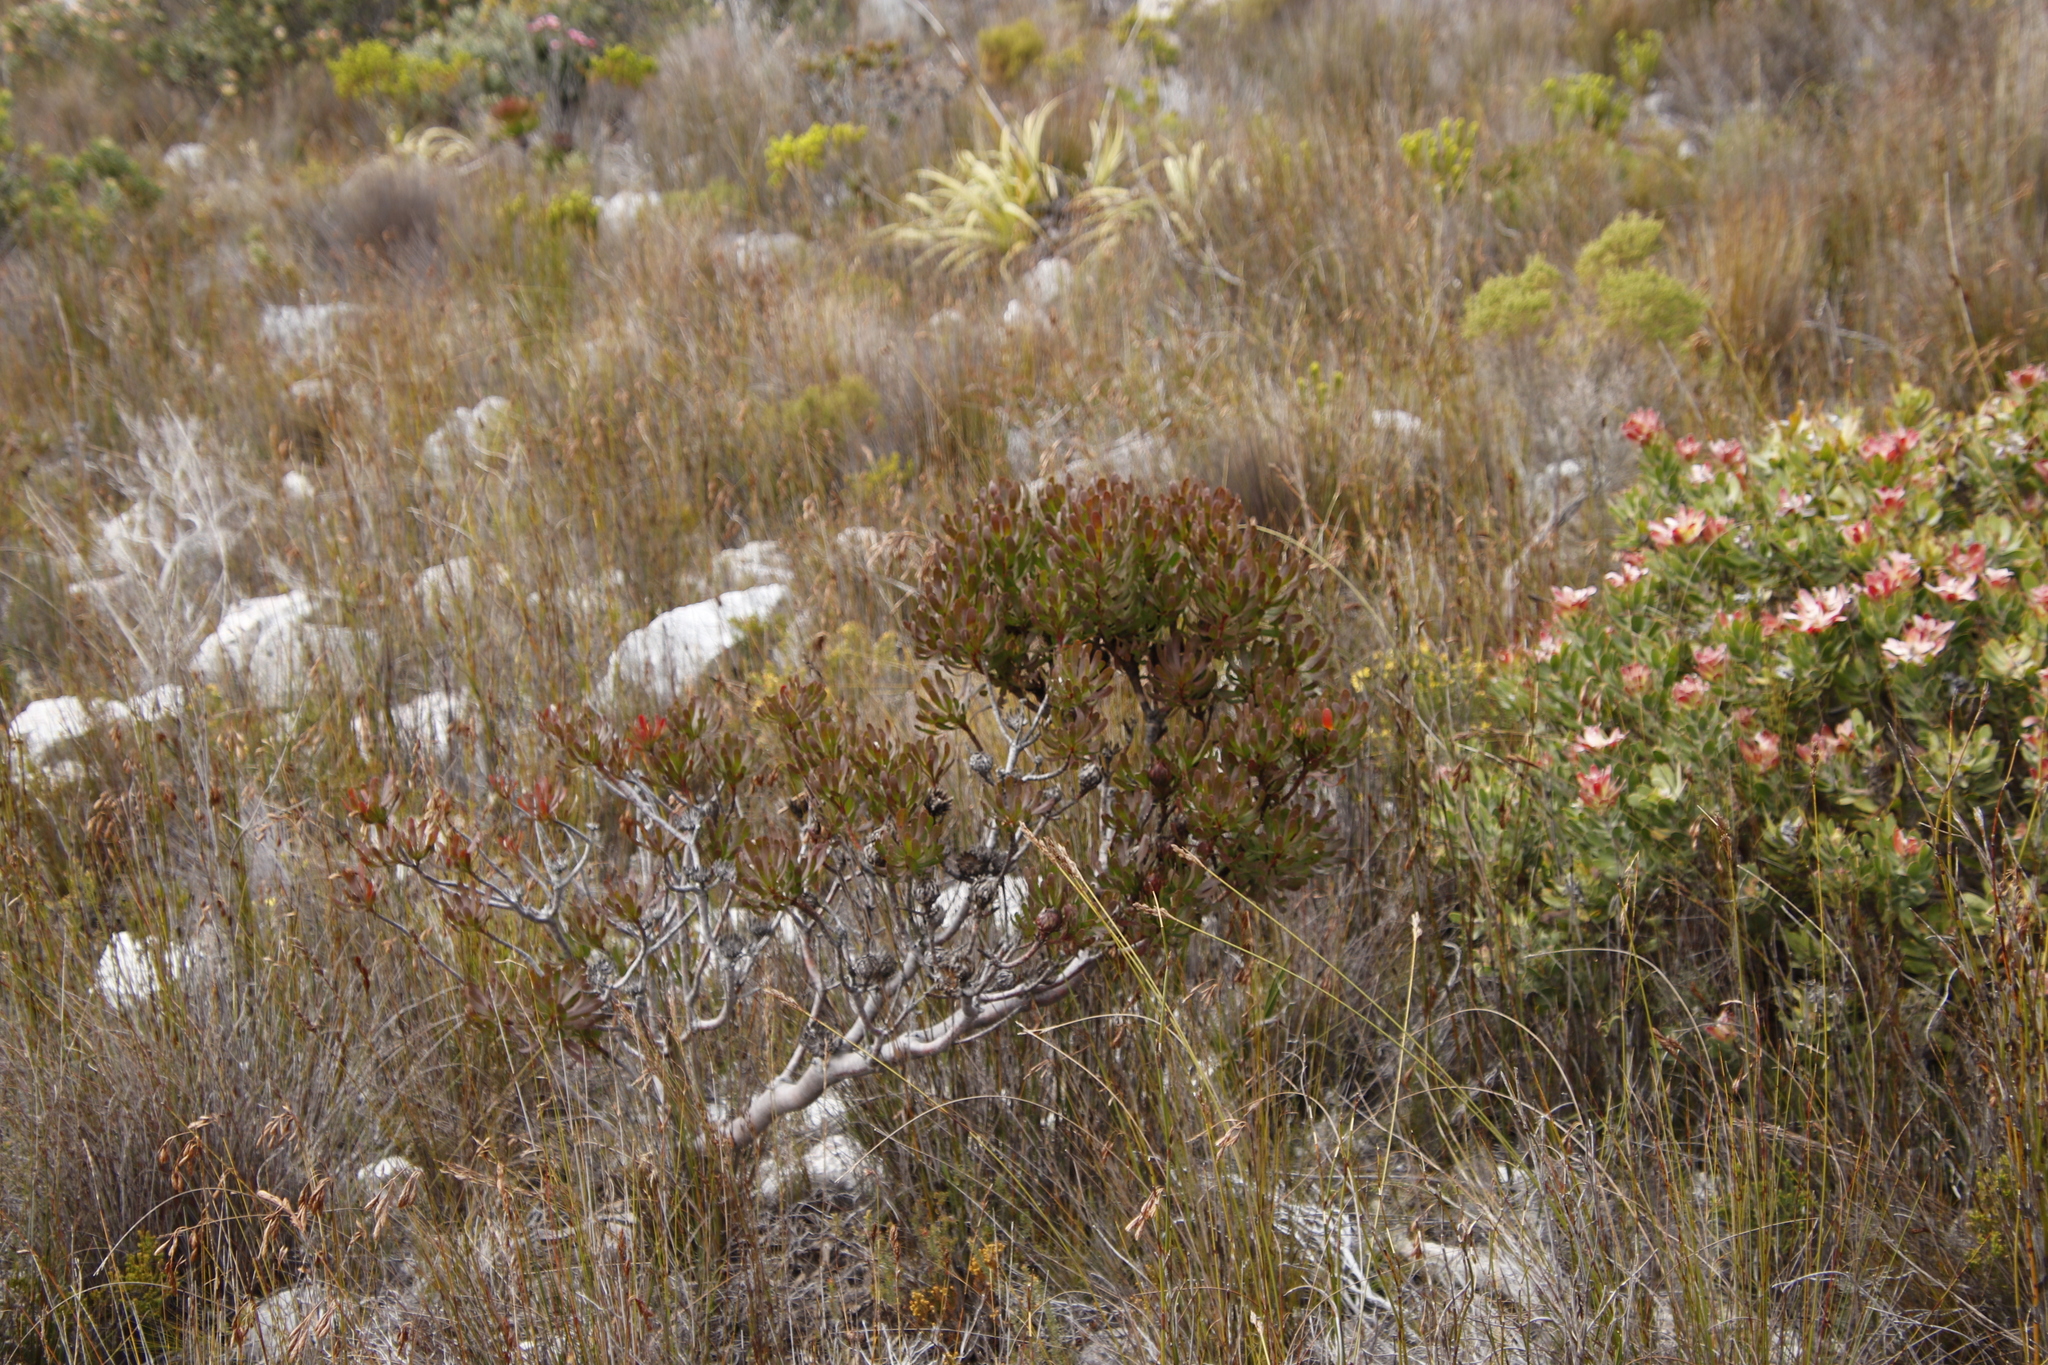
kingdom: Plantae
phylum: Tracheophyta
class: Magnoliopsida
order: Proteales
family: Proteaceae
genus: Aulax
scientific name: Aulax umbellata
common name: Broad-leaf featherbush
